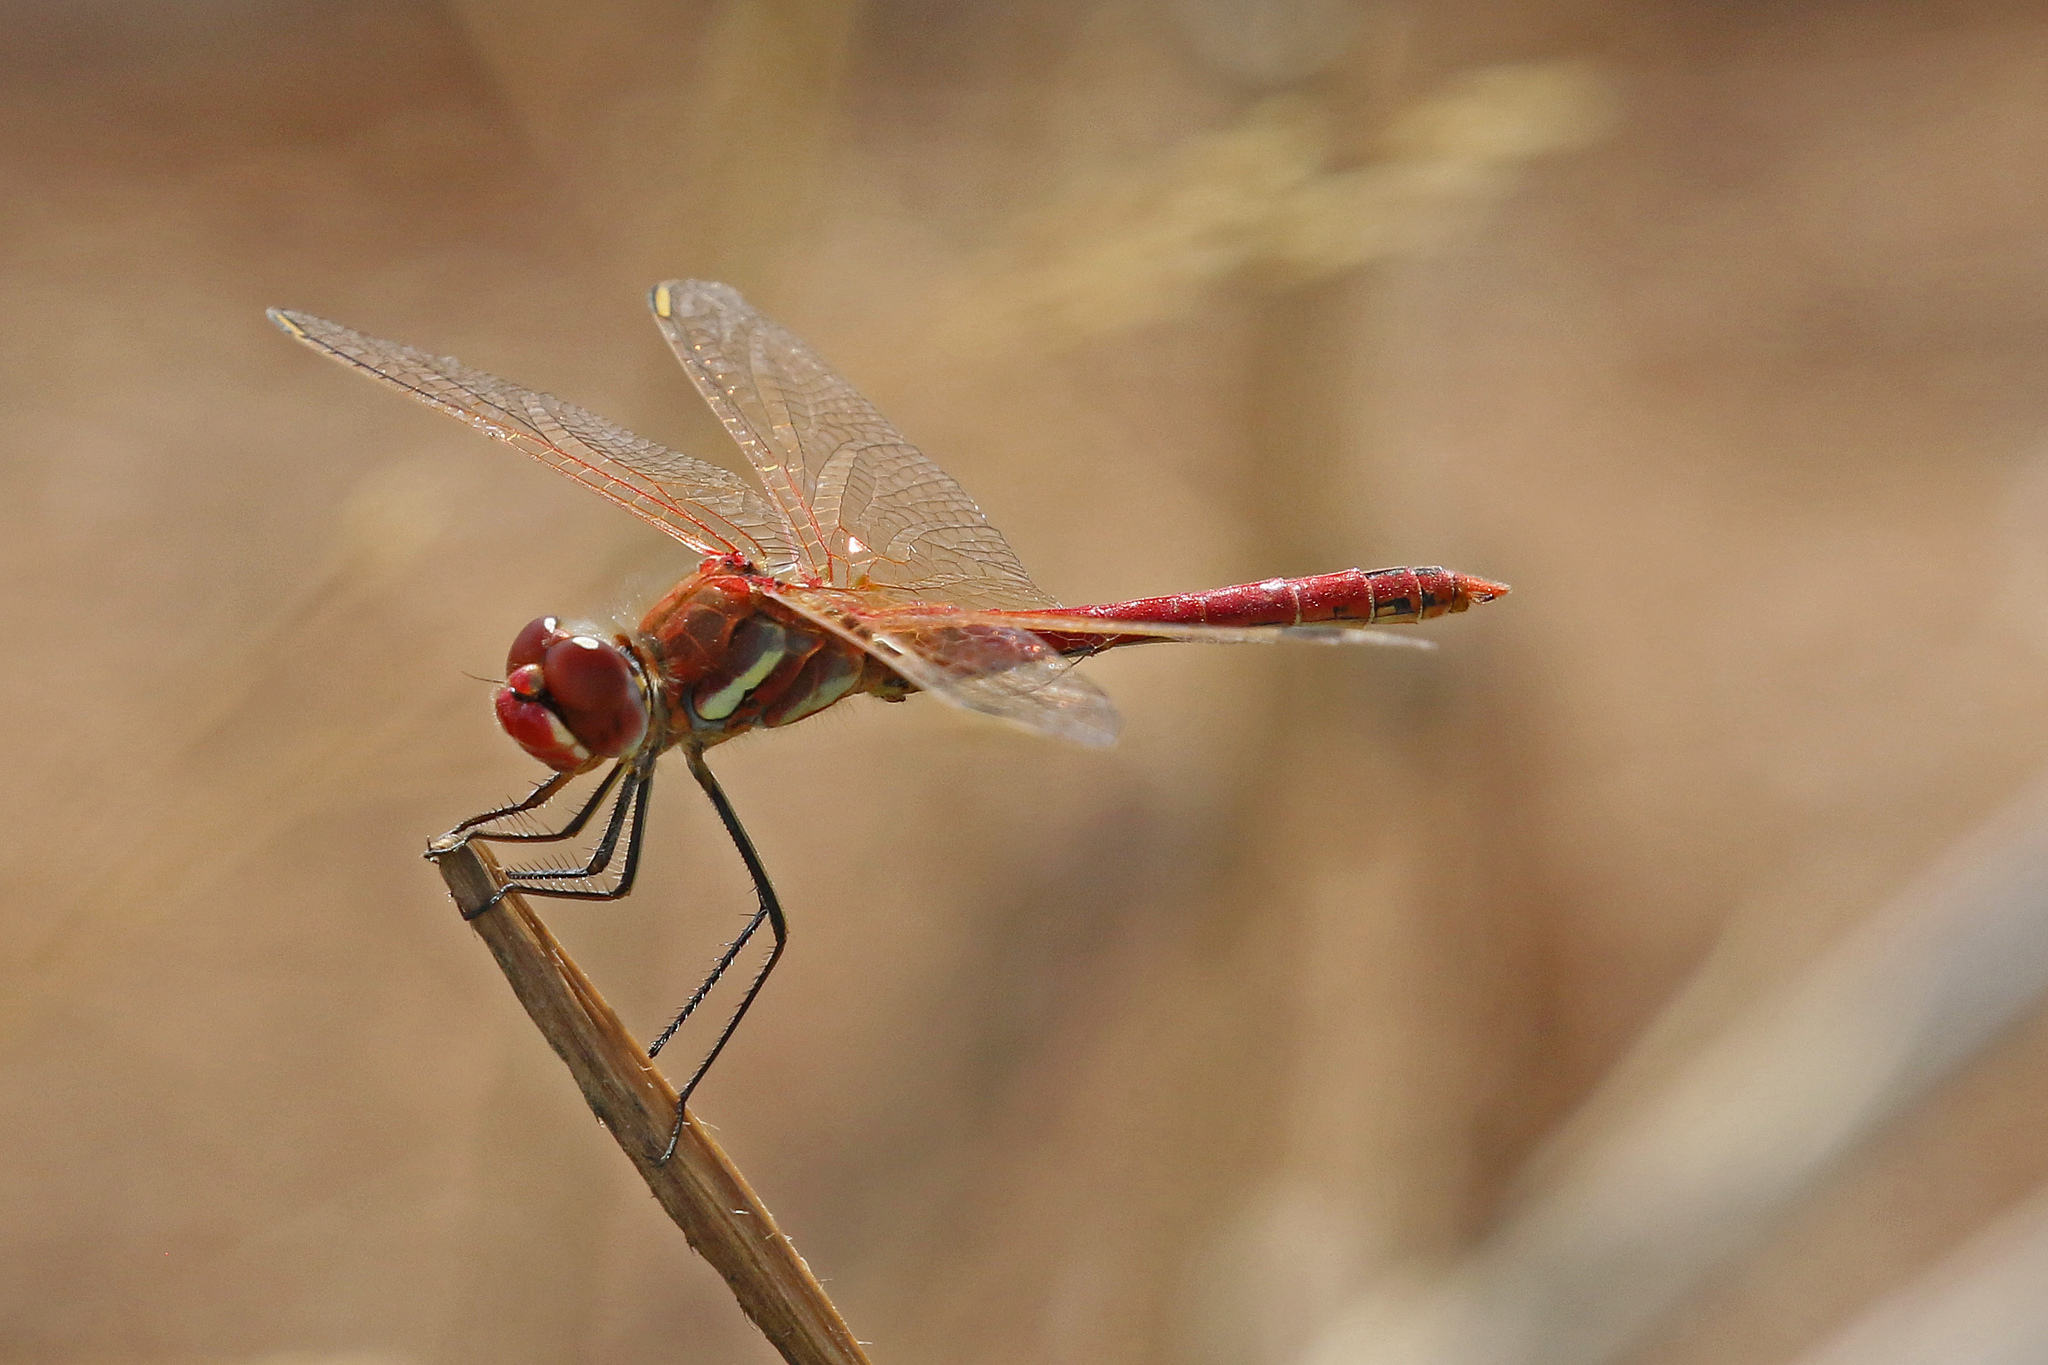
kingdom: Animalia
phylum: Arthropoda
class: Insecta
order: Odonata
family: Libellulidae
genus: Sympetrum
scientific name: Sympetrum fonscolombii
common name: Red-veined darter
